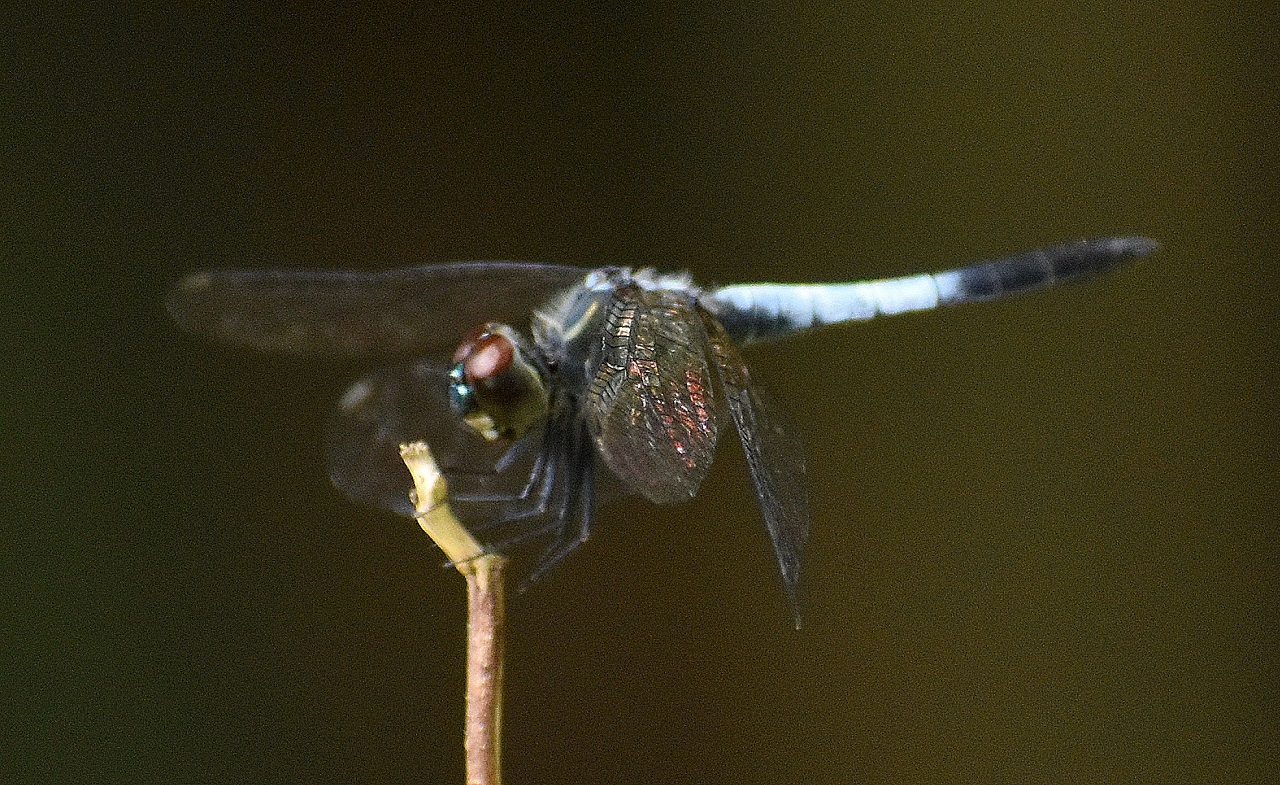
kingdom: Animalia
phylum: Arthropoda
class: Insecta
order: Odonata
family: Libellulidae
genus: Brachydiplax
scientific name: Brachydiplax sobrina
